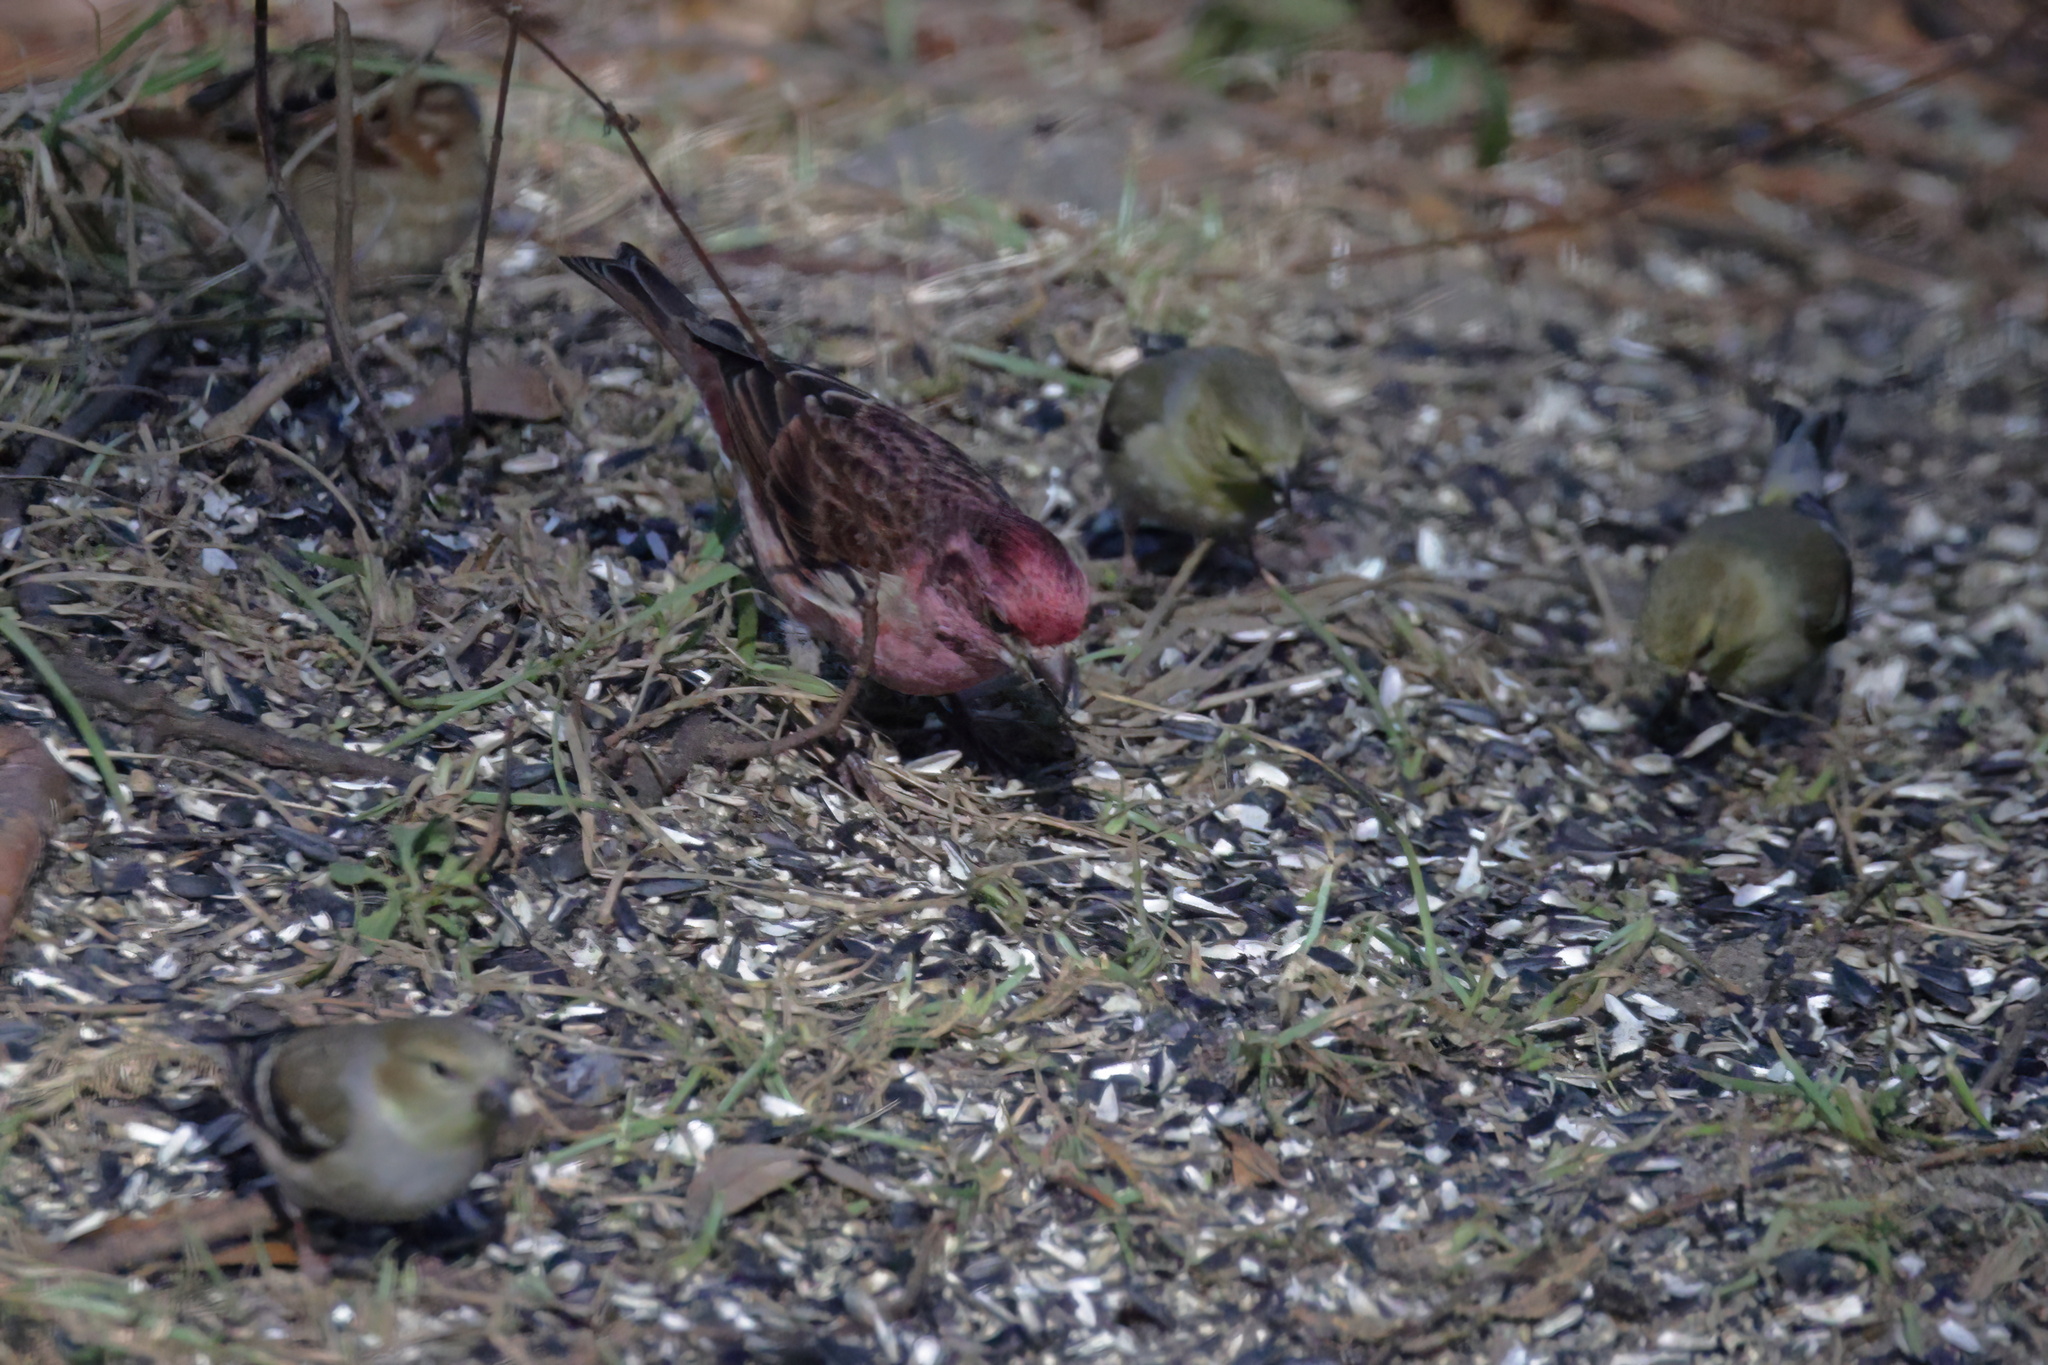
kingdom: Animalia
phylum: Chordata
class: Aves
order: Passeriformes
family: Fringillidae
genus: Haemorhous
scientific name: Haemorhous purpureus
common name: Purple finch
